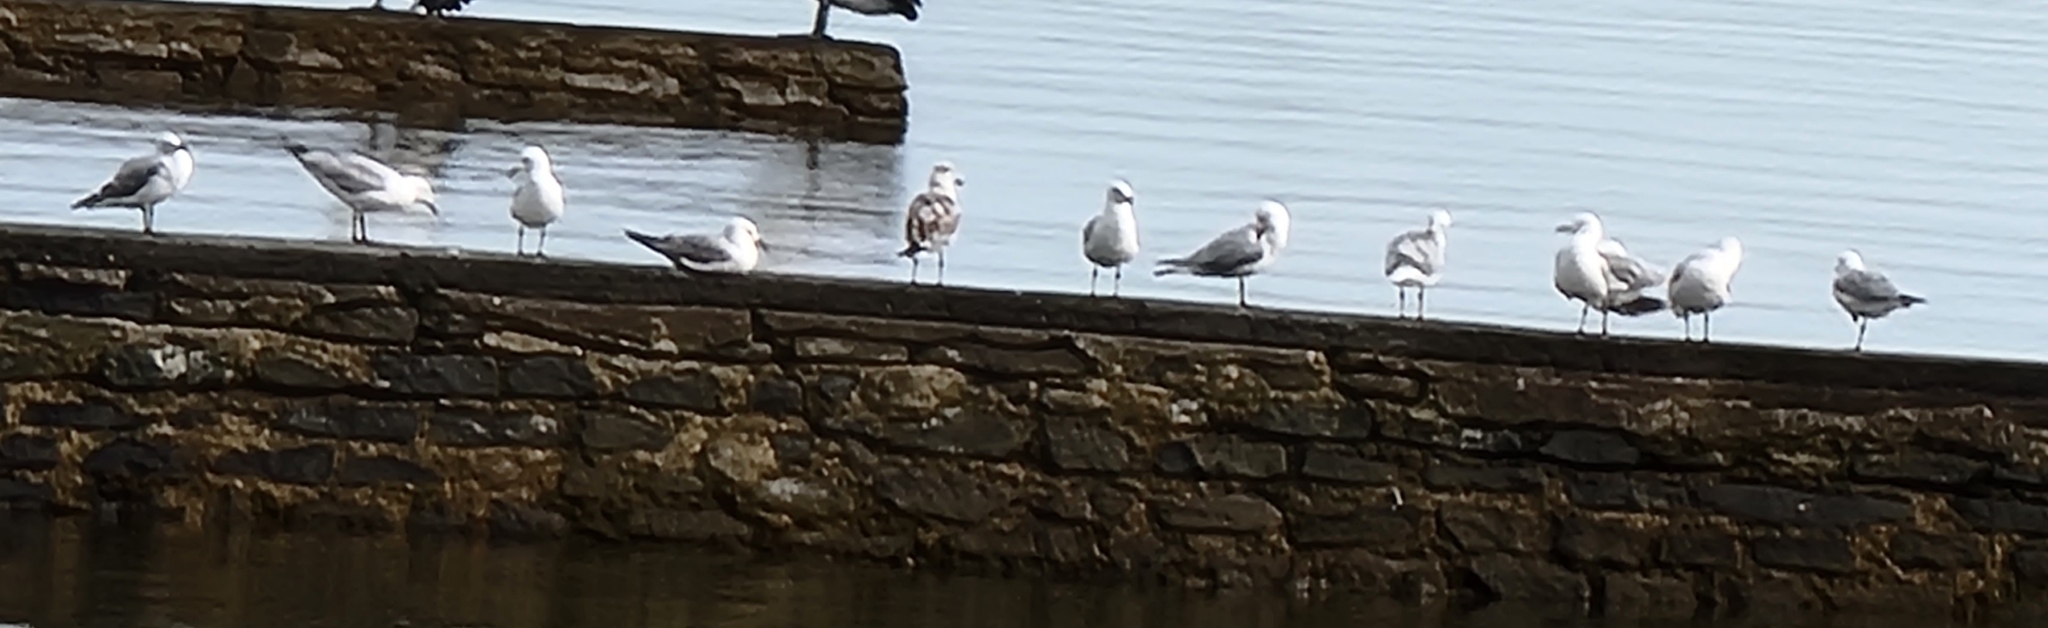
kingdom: Animalia
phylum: Chordata
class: Aves
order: Charadriiformes
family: Laridae
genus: Chroicocephalus
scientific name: Chroicocephalus novaehollandiae
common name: Silver gull
